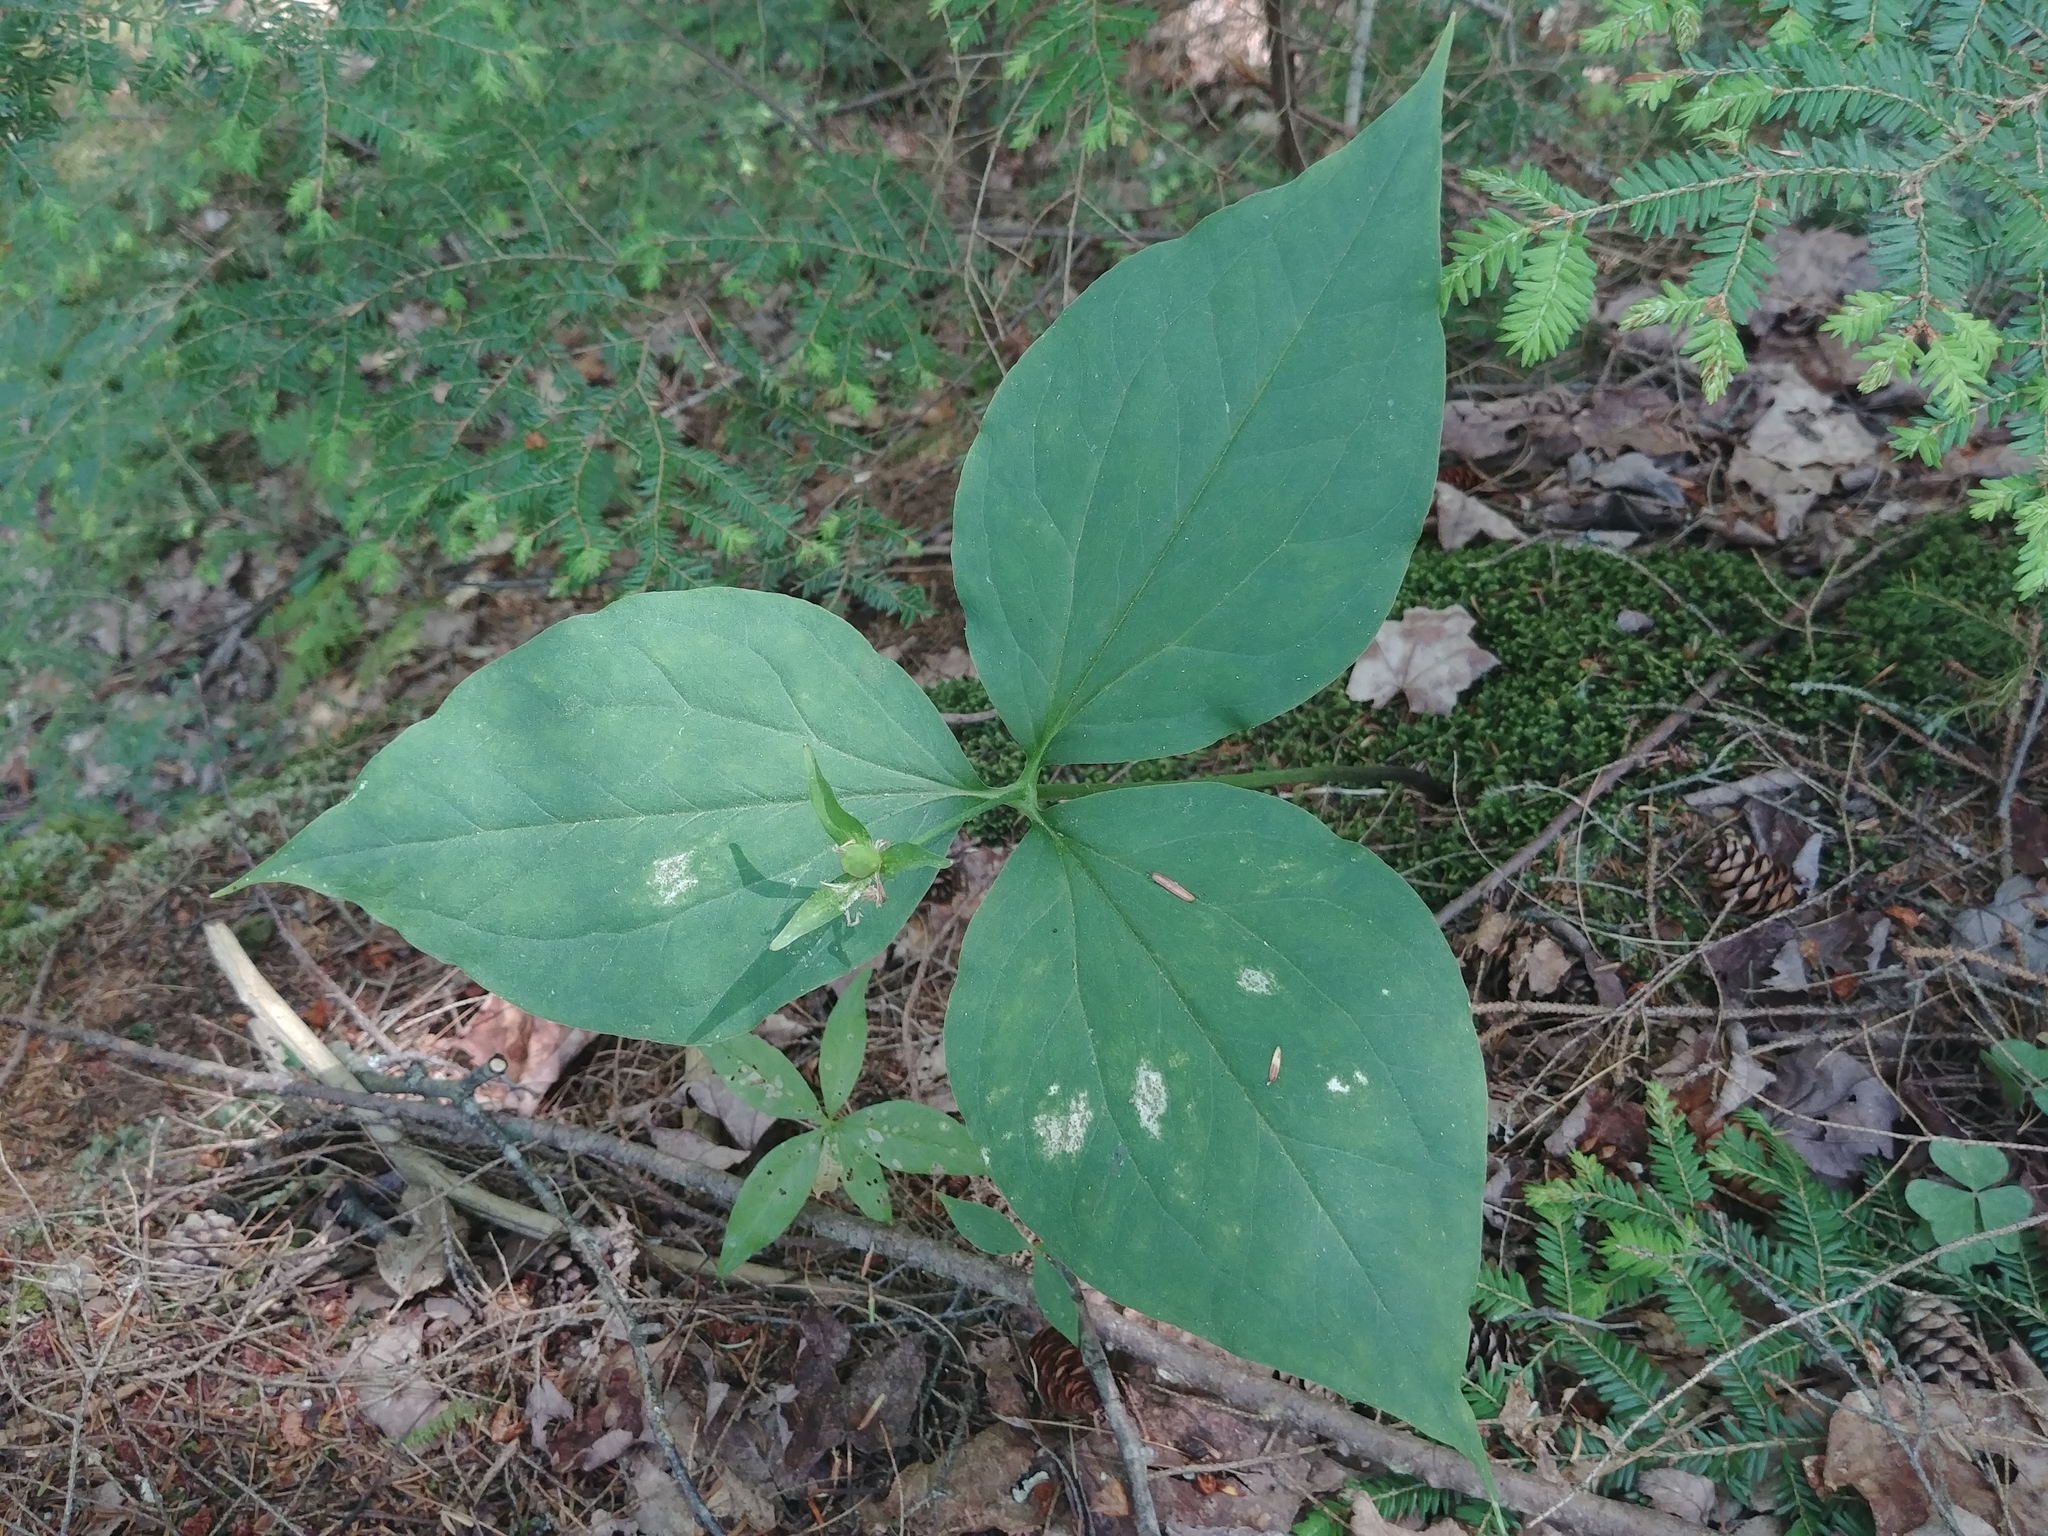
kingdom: Plantae
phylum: Tracheophyta
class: Liliopsida
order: Liliales
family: Melanthiaceae
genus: Trillium
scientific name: Trillium undulatum
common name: Paint trillium
